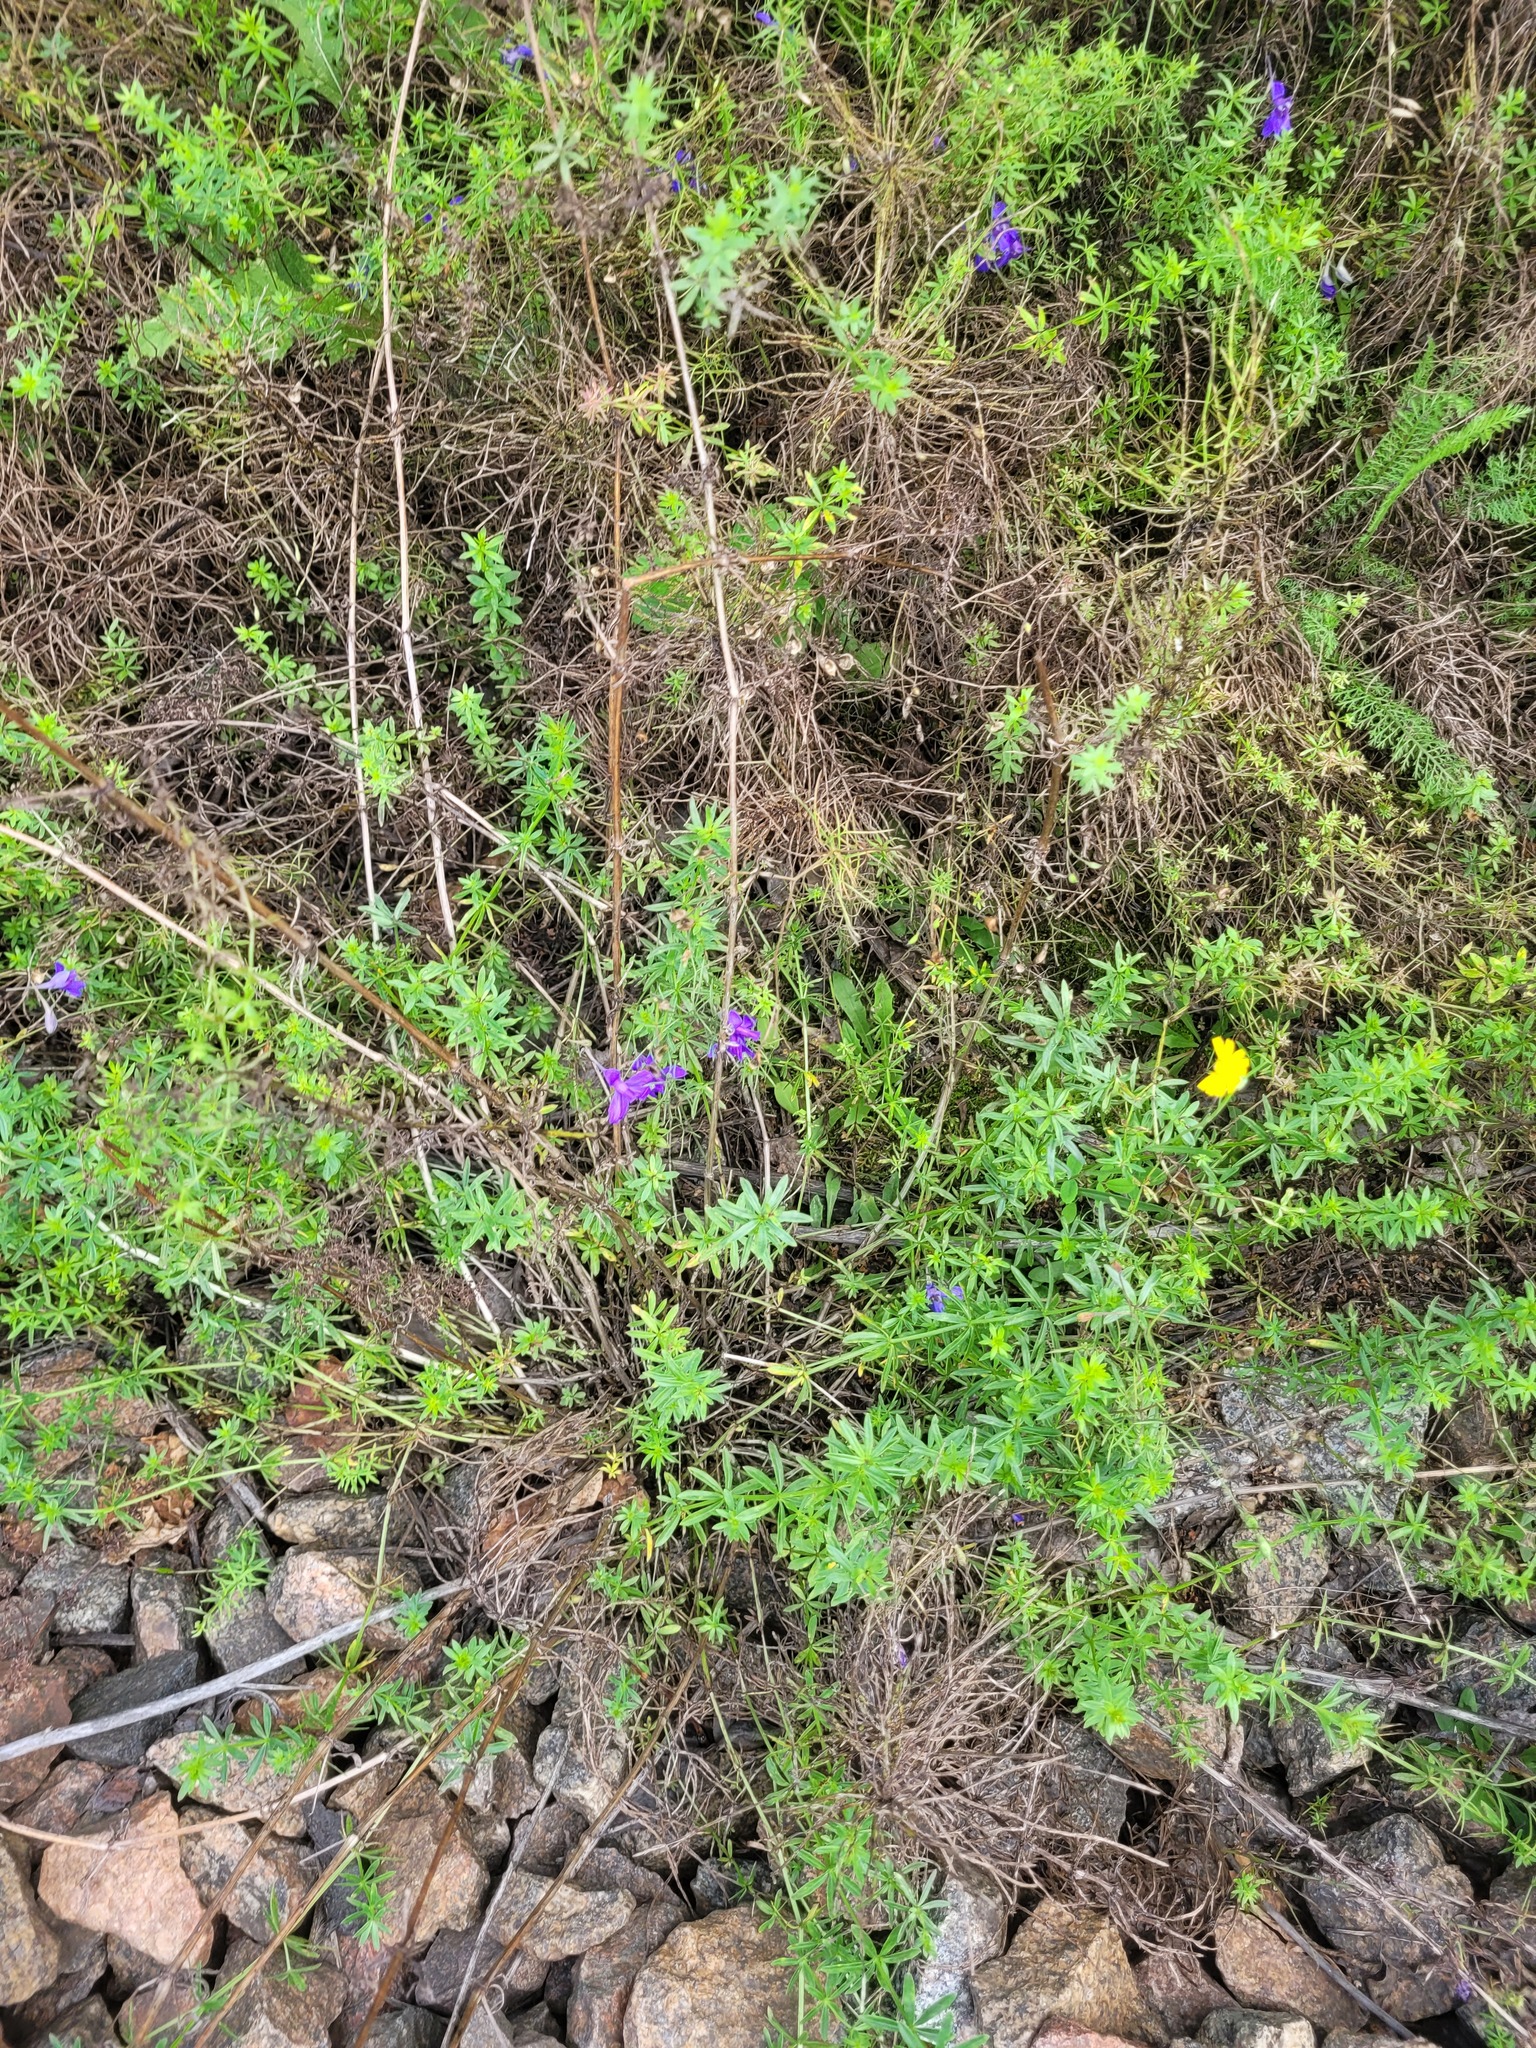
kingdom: Plantae
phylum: Tracheophyta
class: Magnoliopsida
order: Ranunculales
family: Ranunculaceae
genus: Delphinium
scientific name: Delphinium consolida
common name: Branching larkspur
